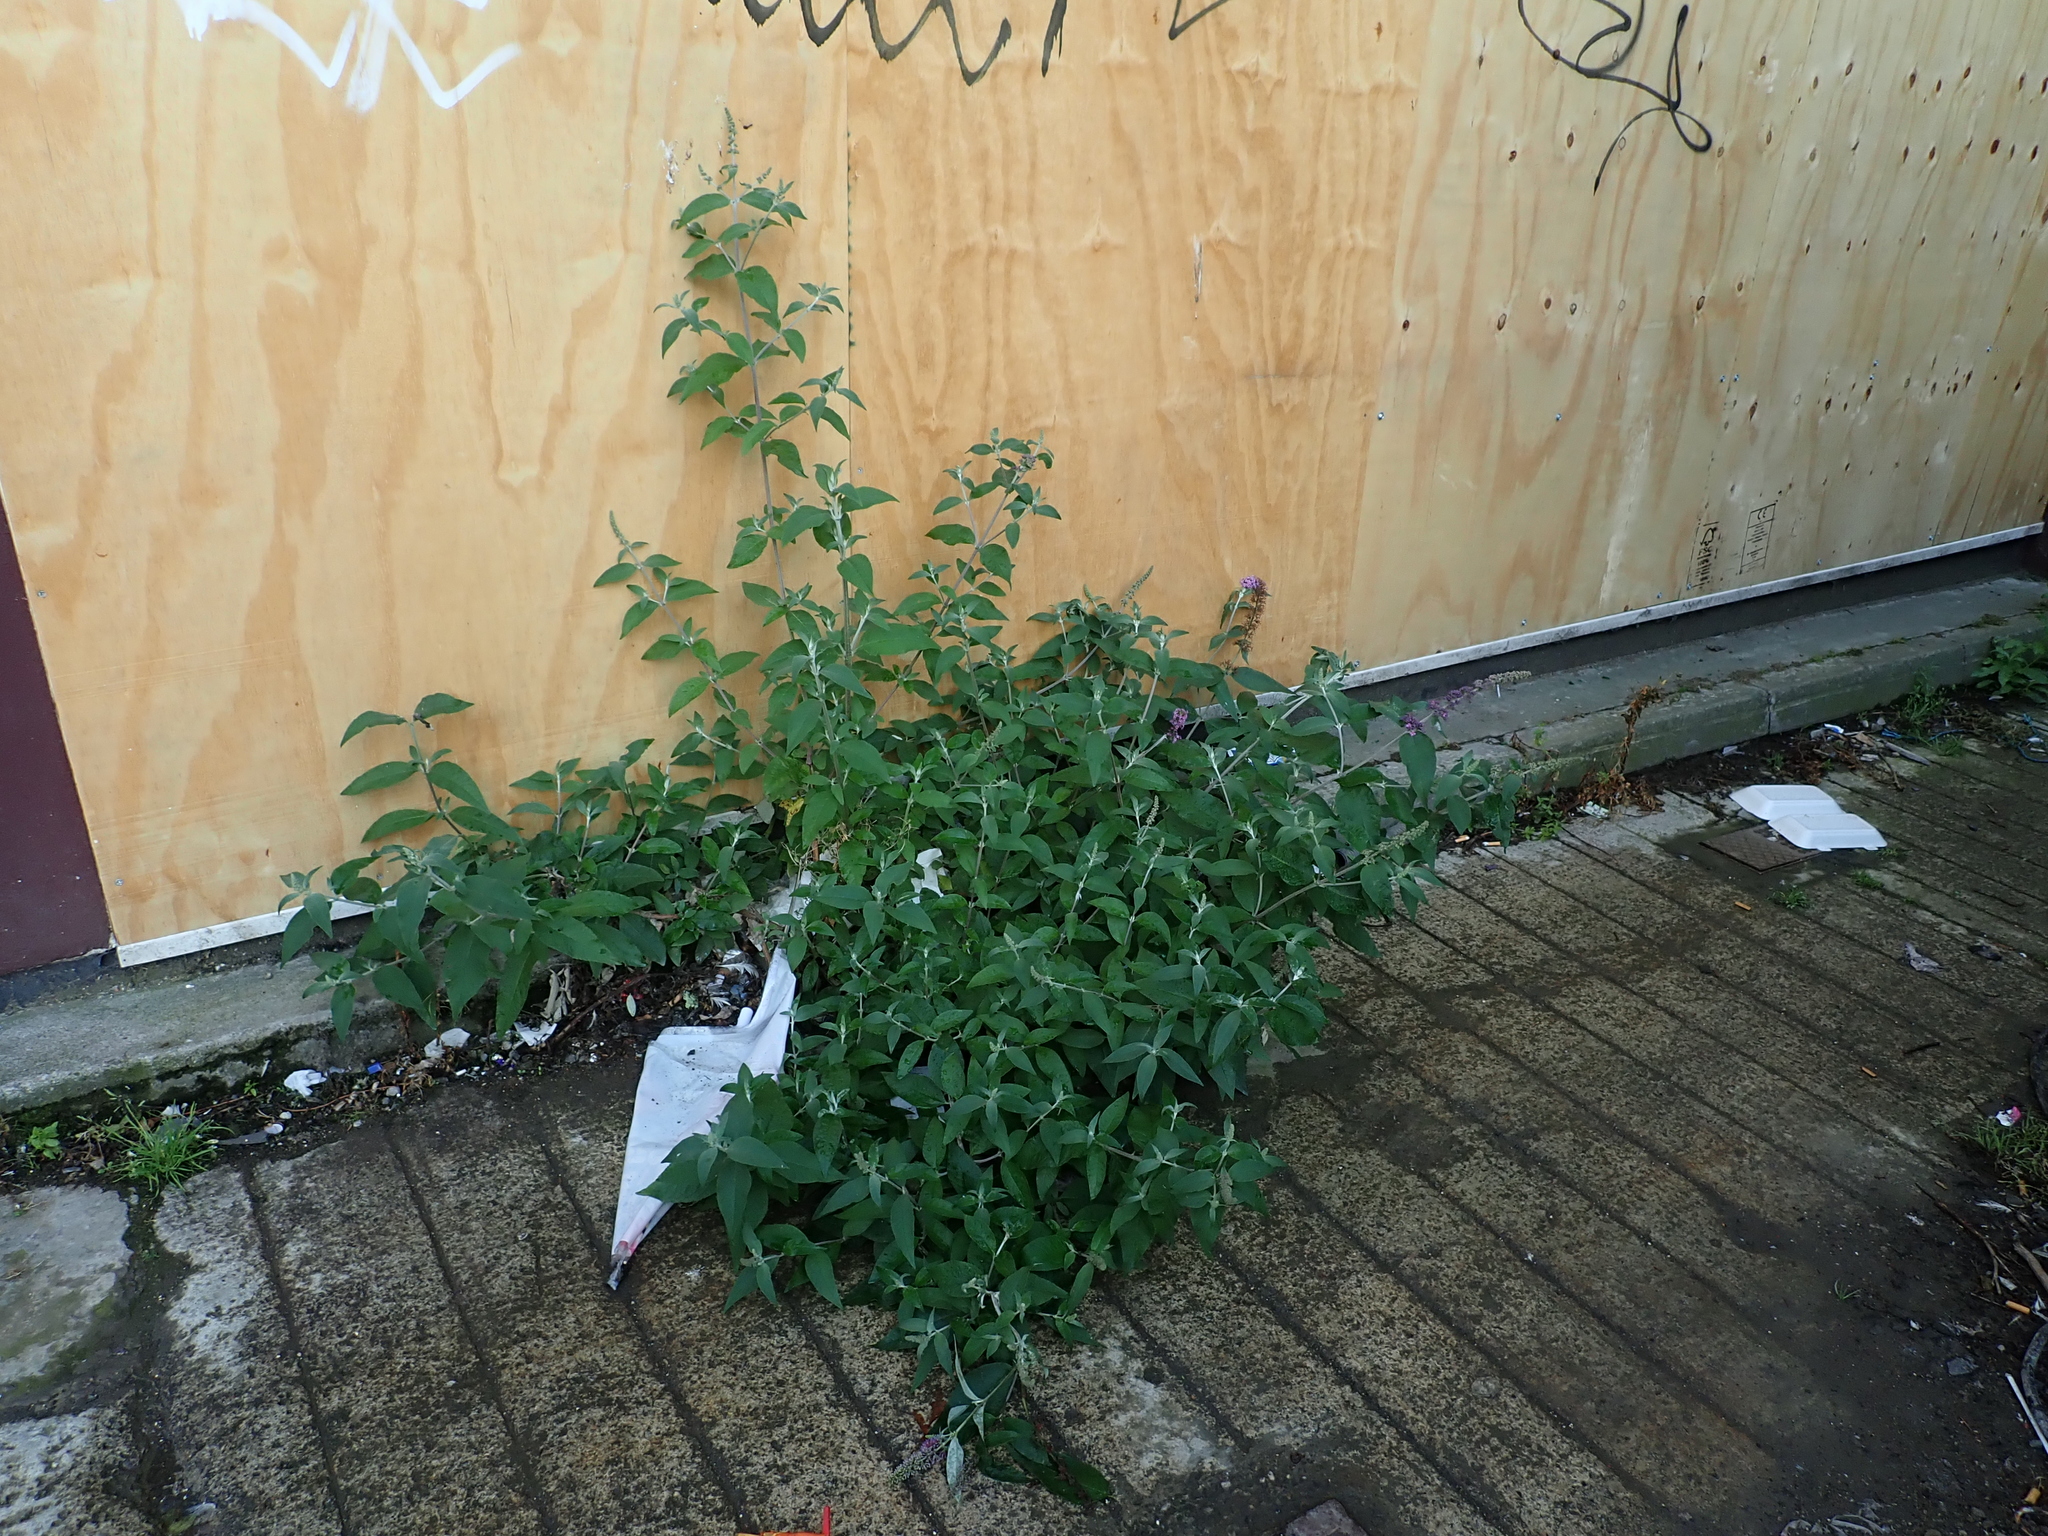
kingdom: Plantae
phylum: Tracheophyta
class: Magnoliopsida
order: Lamiales
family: Scrophulariaceae
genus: Buddleja
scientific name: Buddleja davidii
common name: Butterfly-bush
